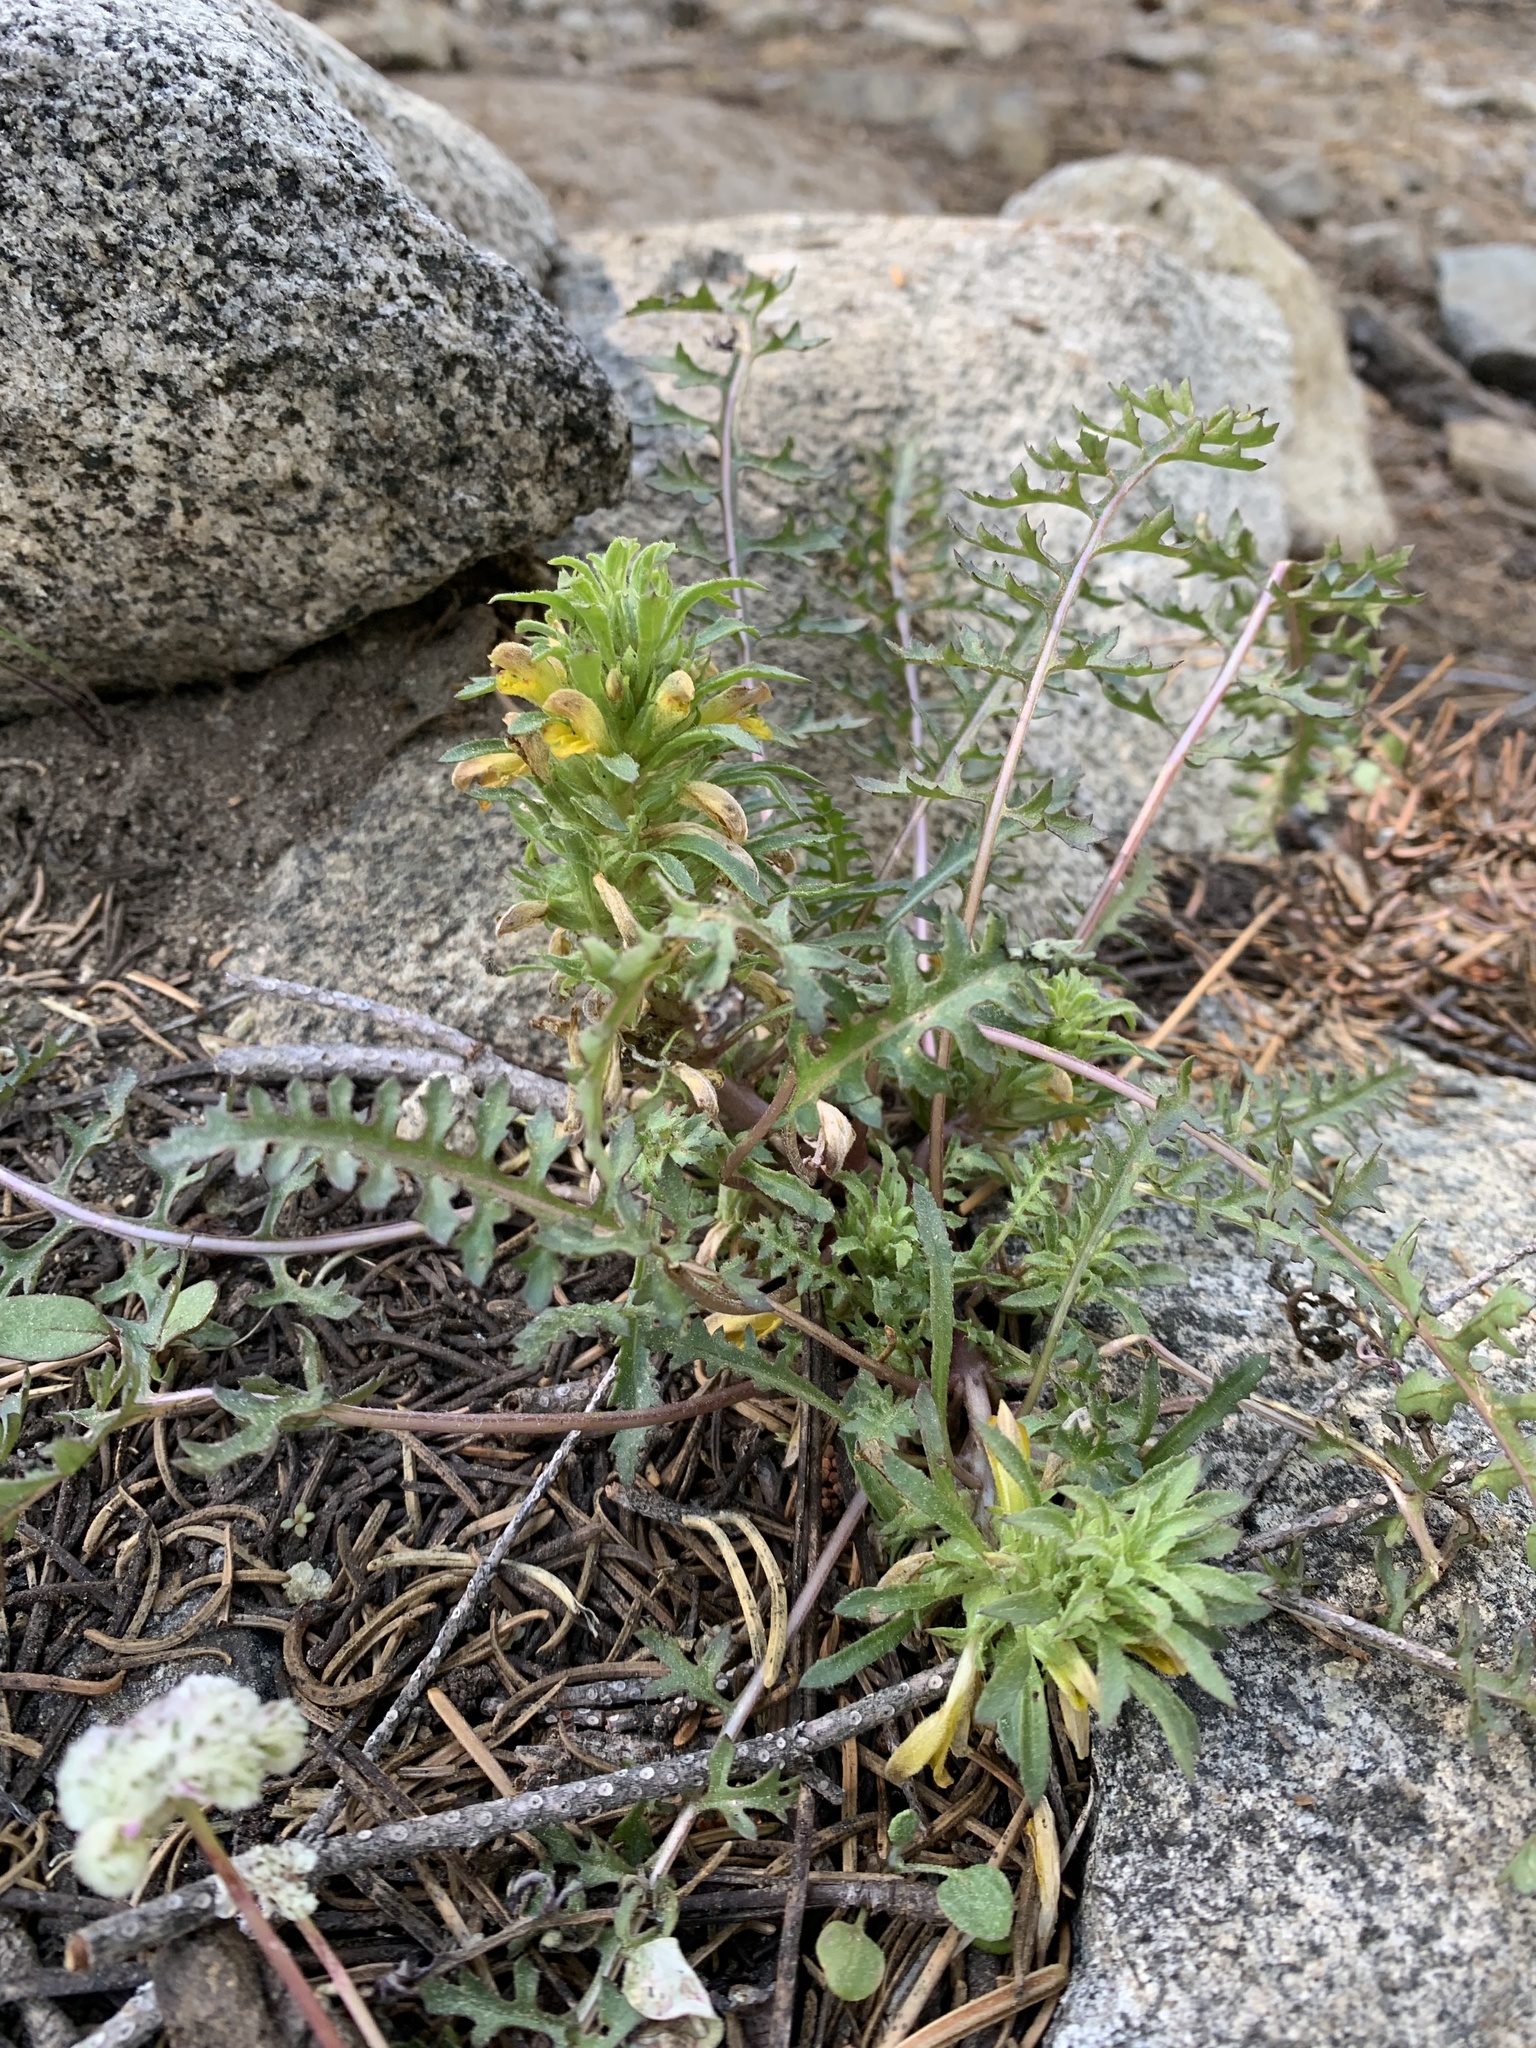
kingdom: Plantae
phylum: Tracheophyta
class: Magnoliopsida
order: Lamiales
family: Orobanchaceae
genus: Pedicularis
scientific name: Pedicularis semibarbata
